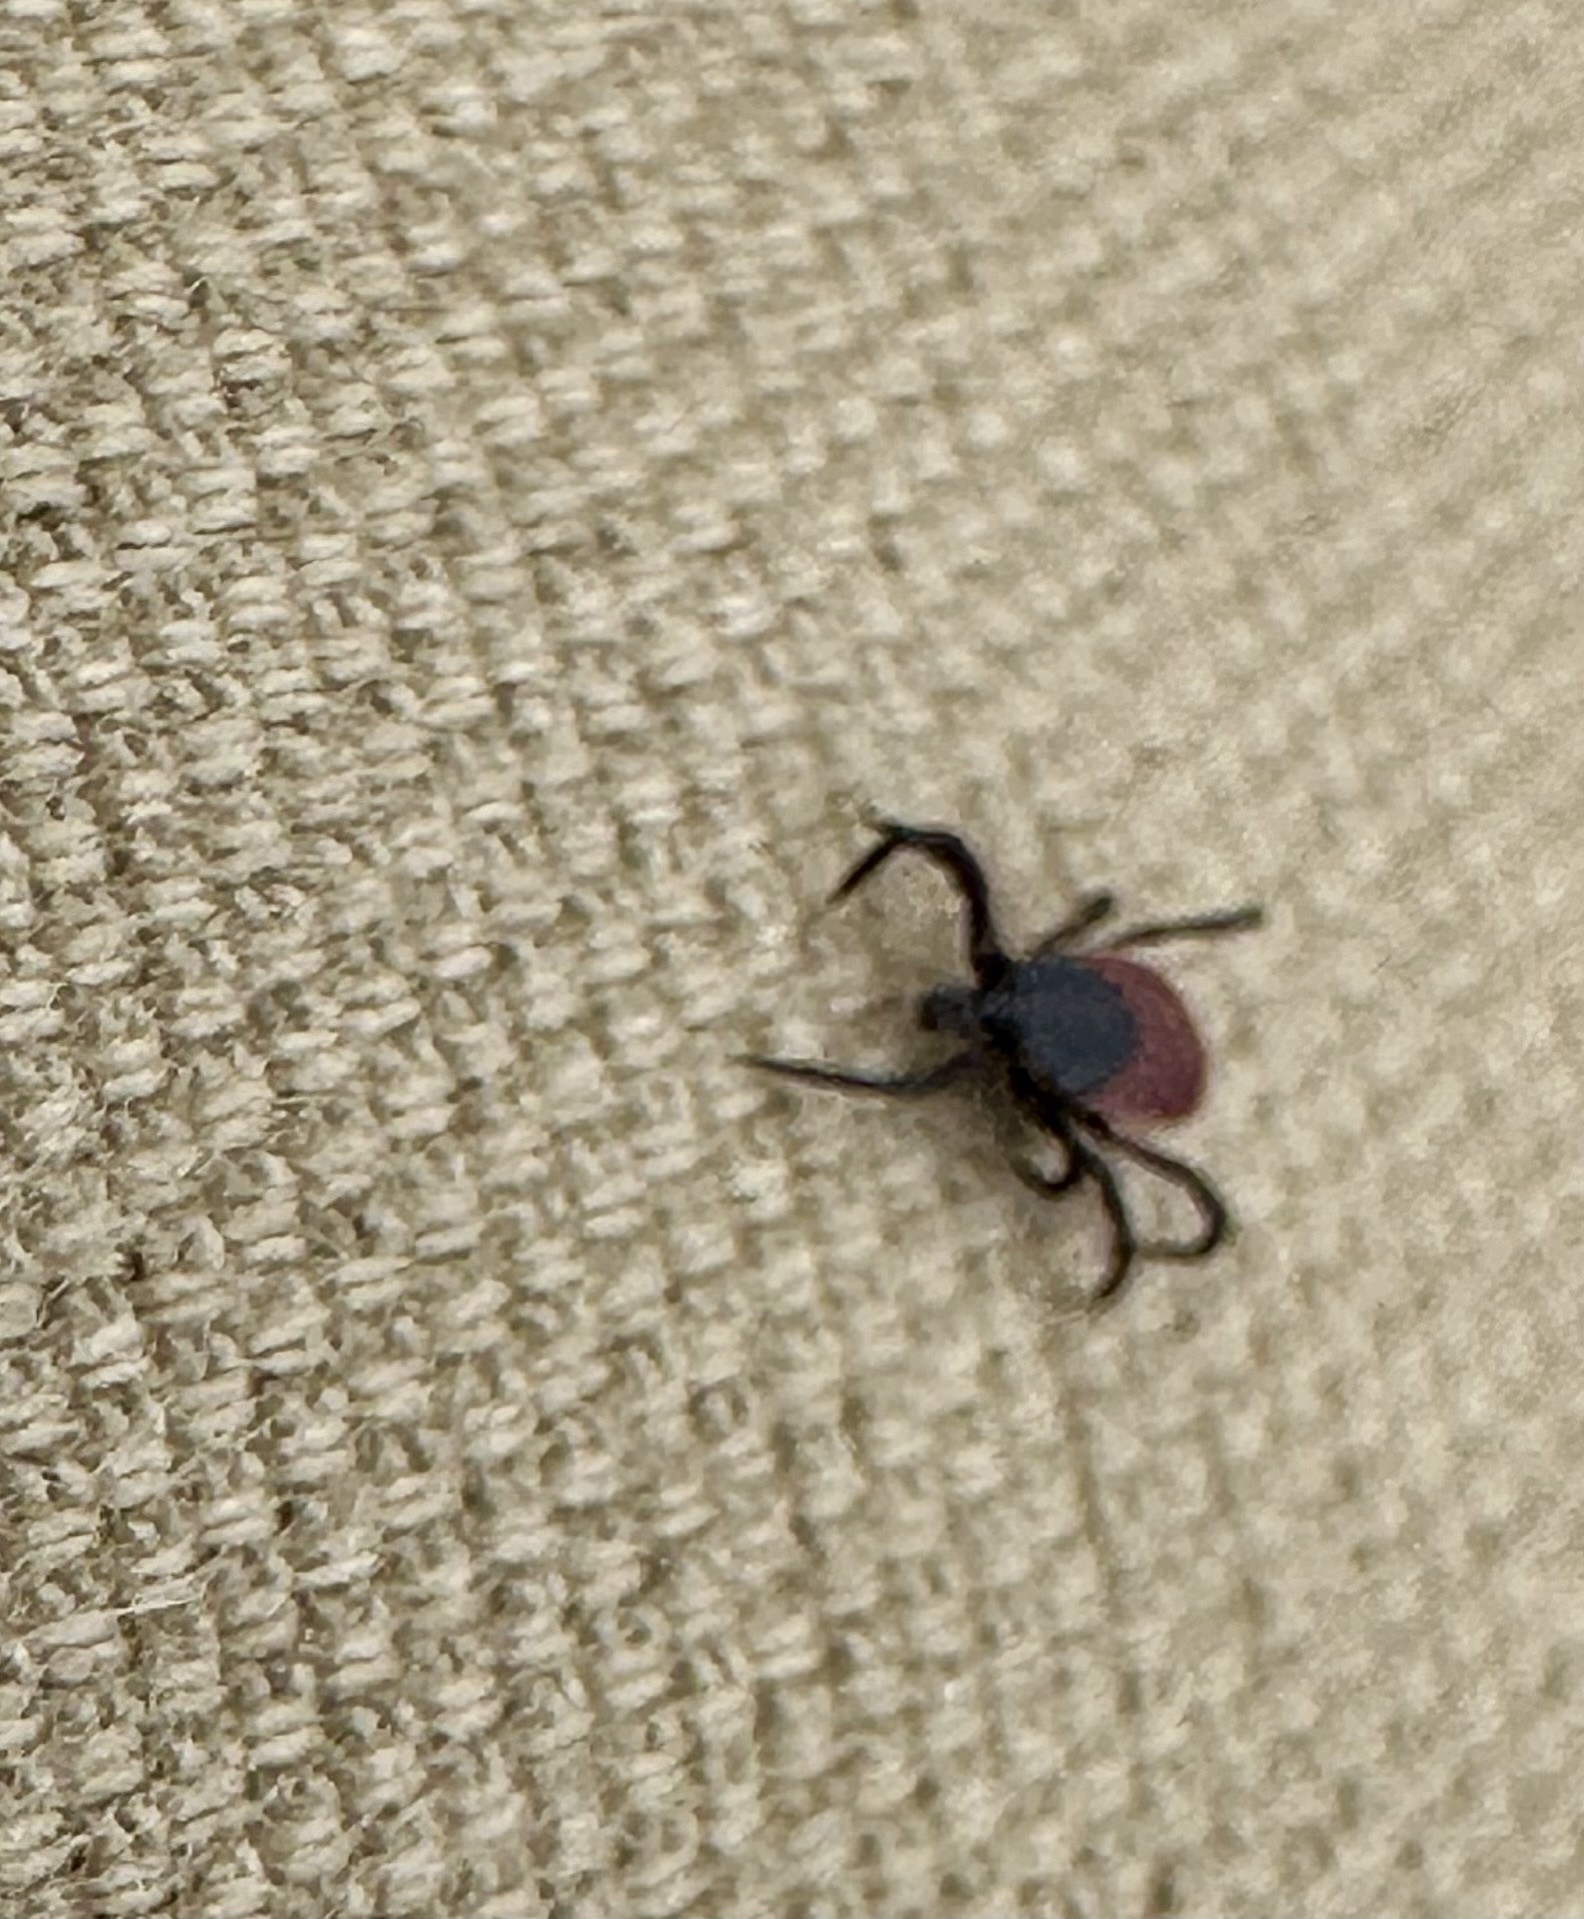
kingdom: Animalia
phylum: Arthropoda
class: Arachnida
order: Ixodida
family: Ixodidae
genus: Ixodes
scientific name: Ixodes pacificus
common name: California black-legged tick
